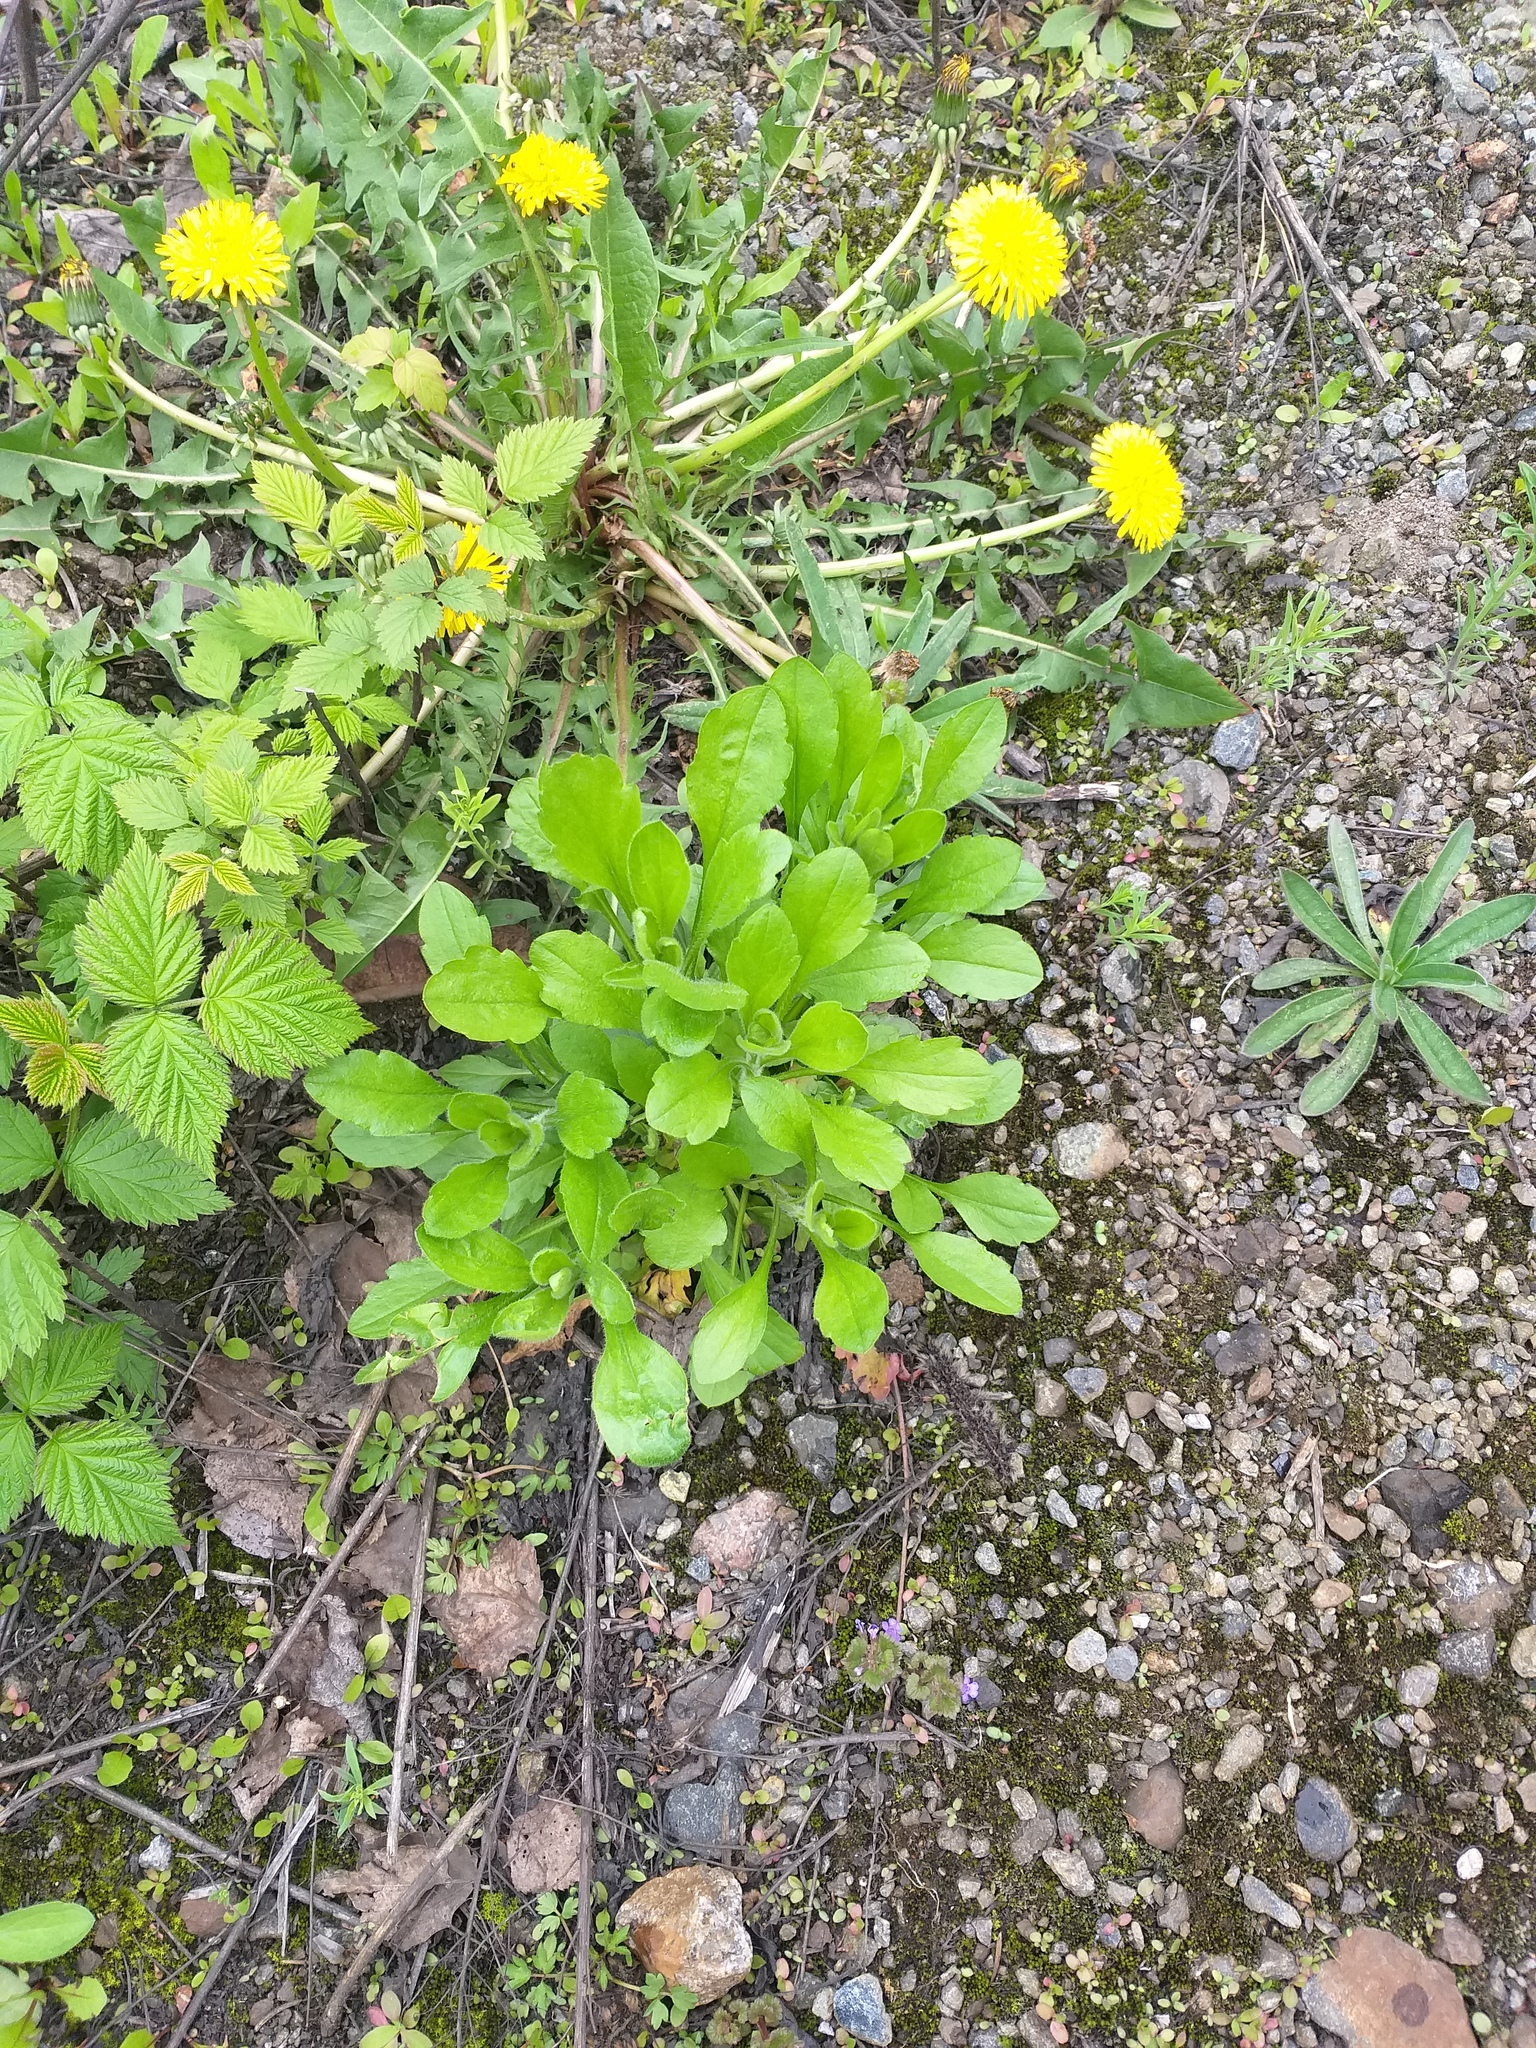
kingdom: Plantae
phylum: Tracheophyta
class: Magnoliopsida
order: Asterales
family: Asteraceae
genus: Erigeron
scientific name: Erigeron annuus
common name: Tall fleabane
